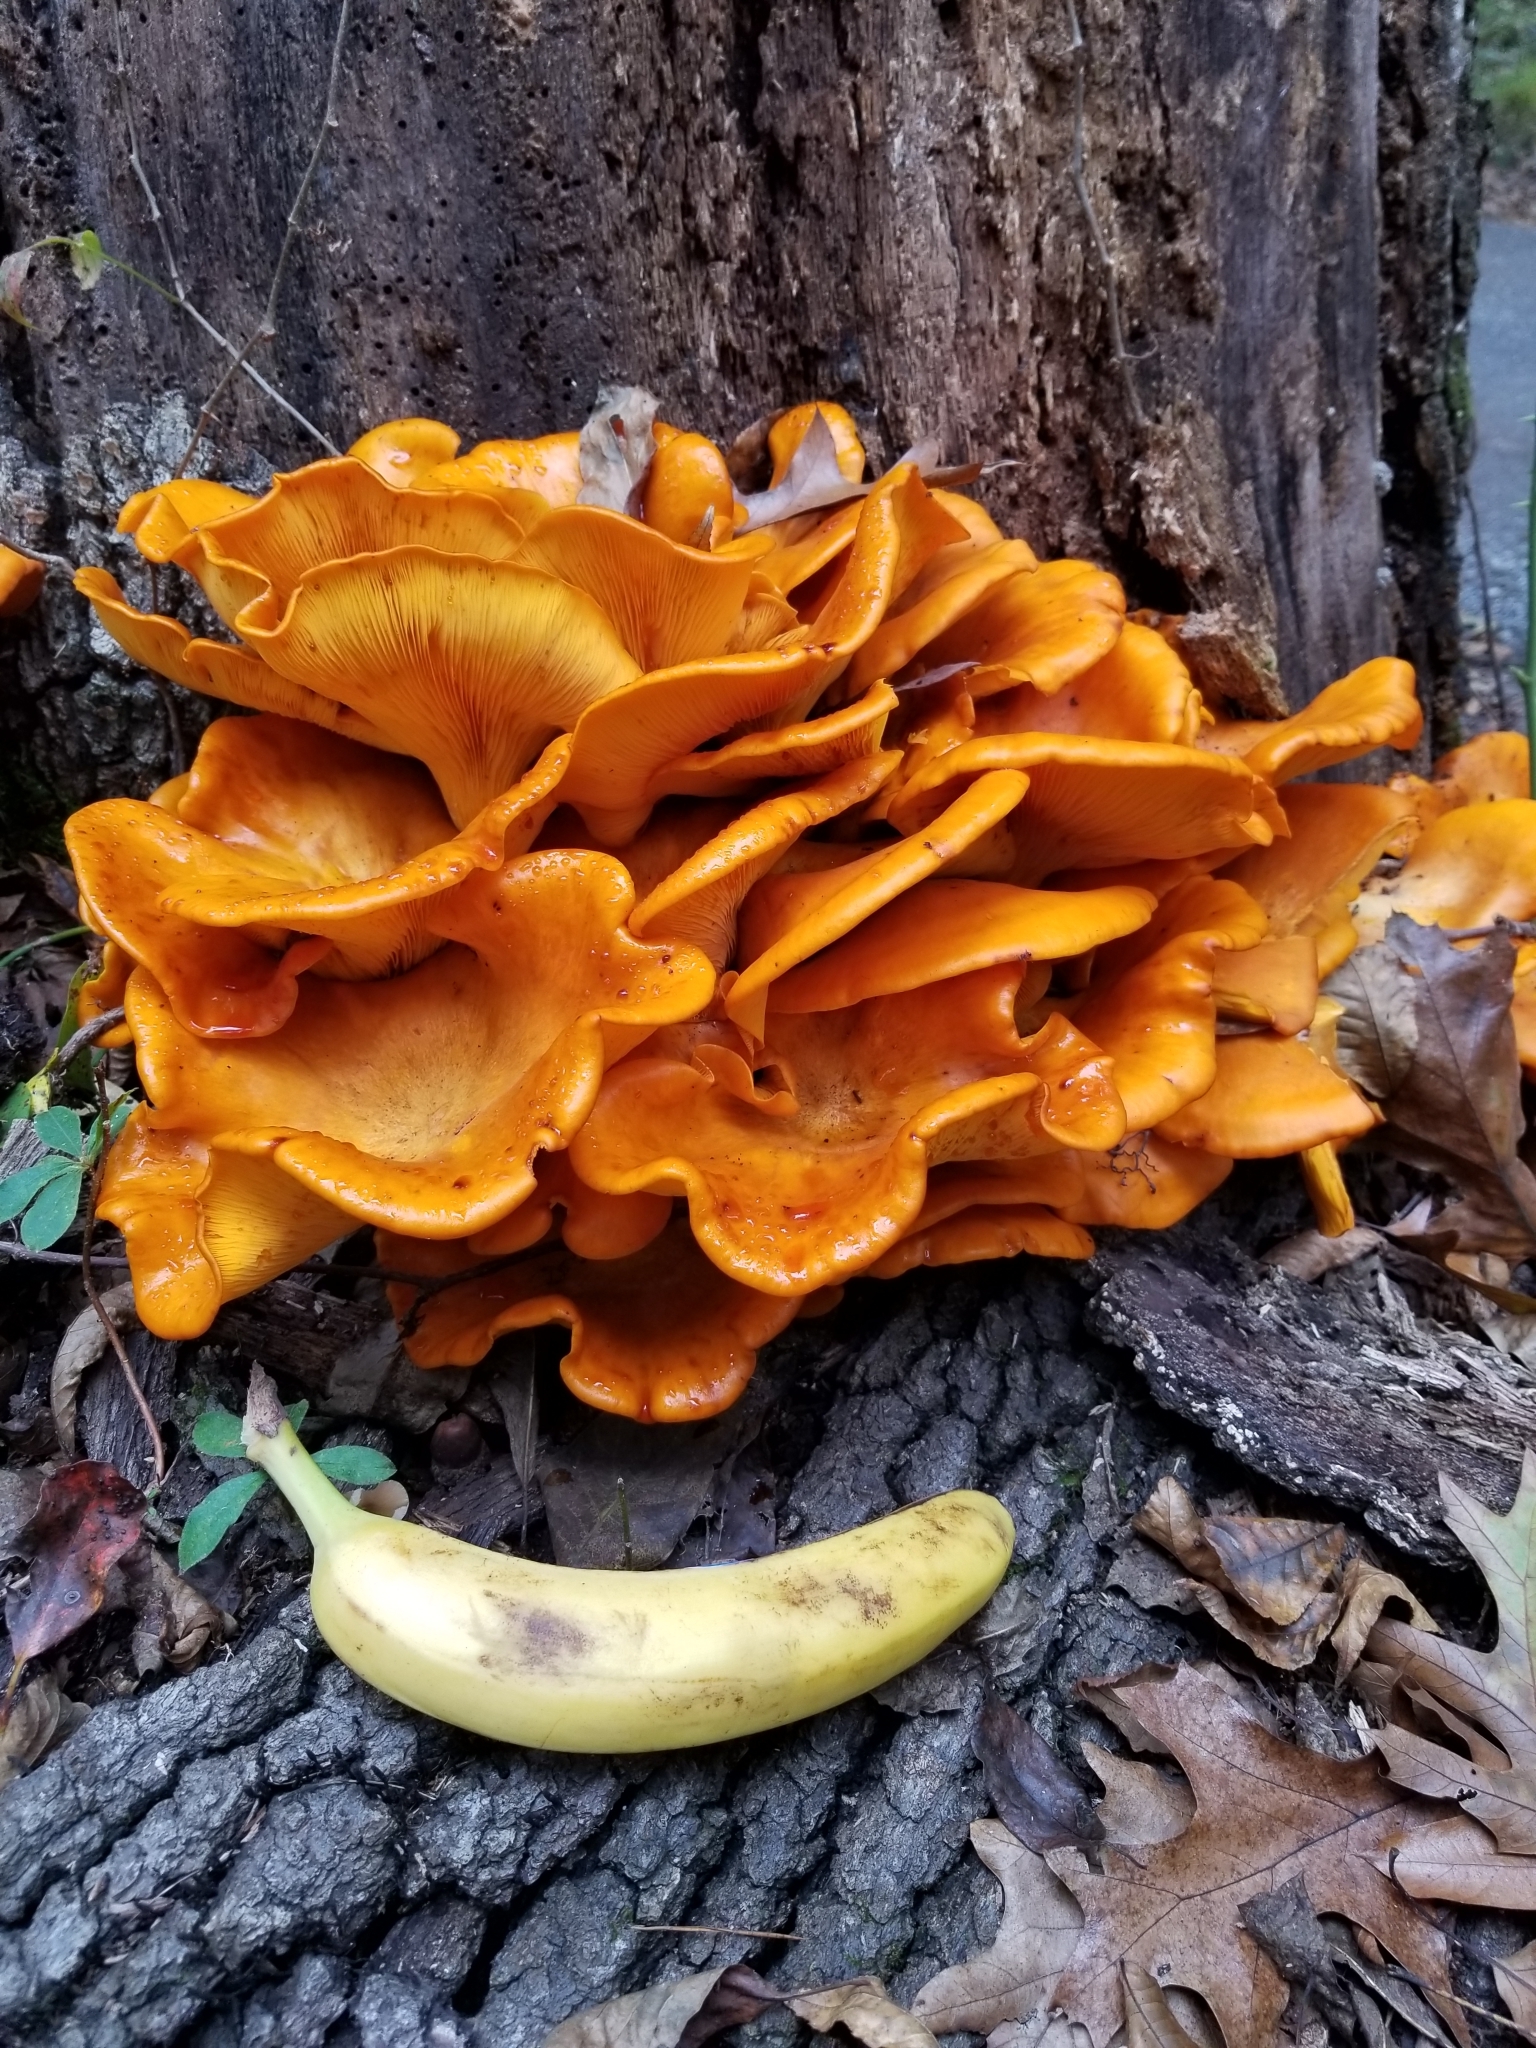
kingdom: Fungi
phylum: Basidiomycota
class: Agaricomycetes
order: Agaricales
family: Omphalotaceae
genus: Omphalotus
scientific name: Omphalotus illudens
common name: Jack o lantern
